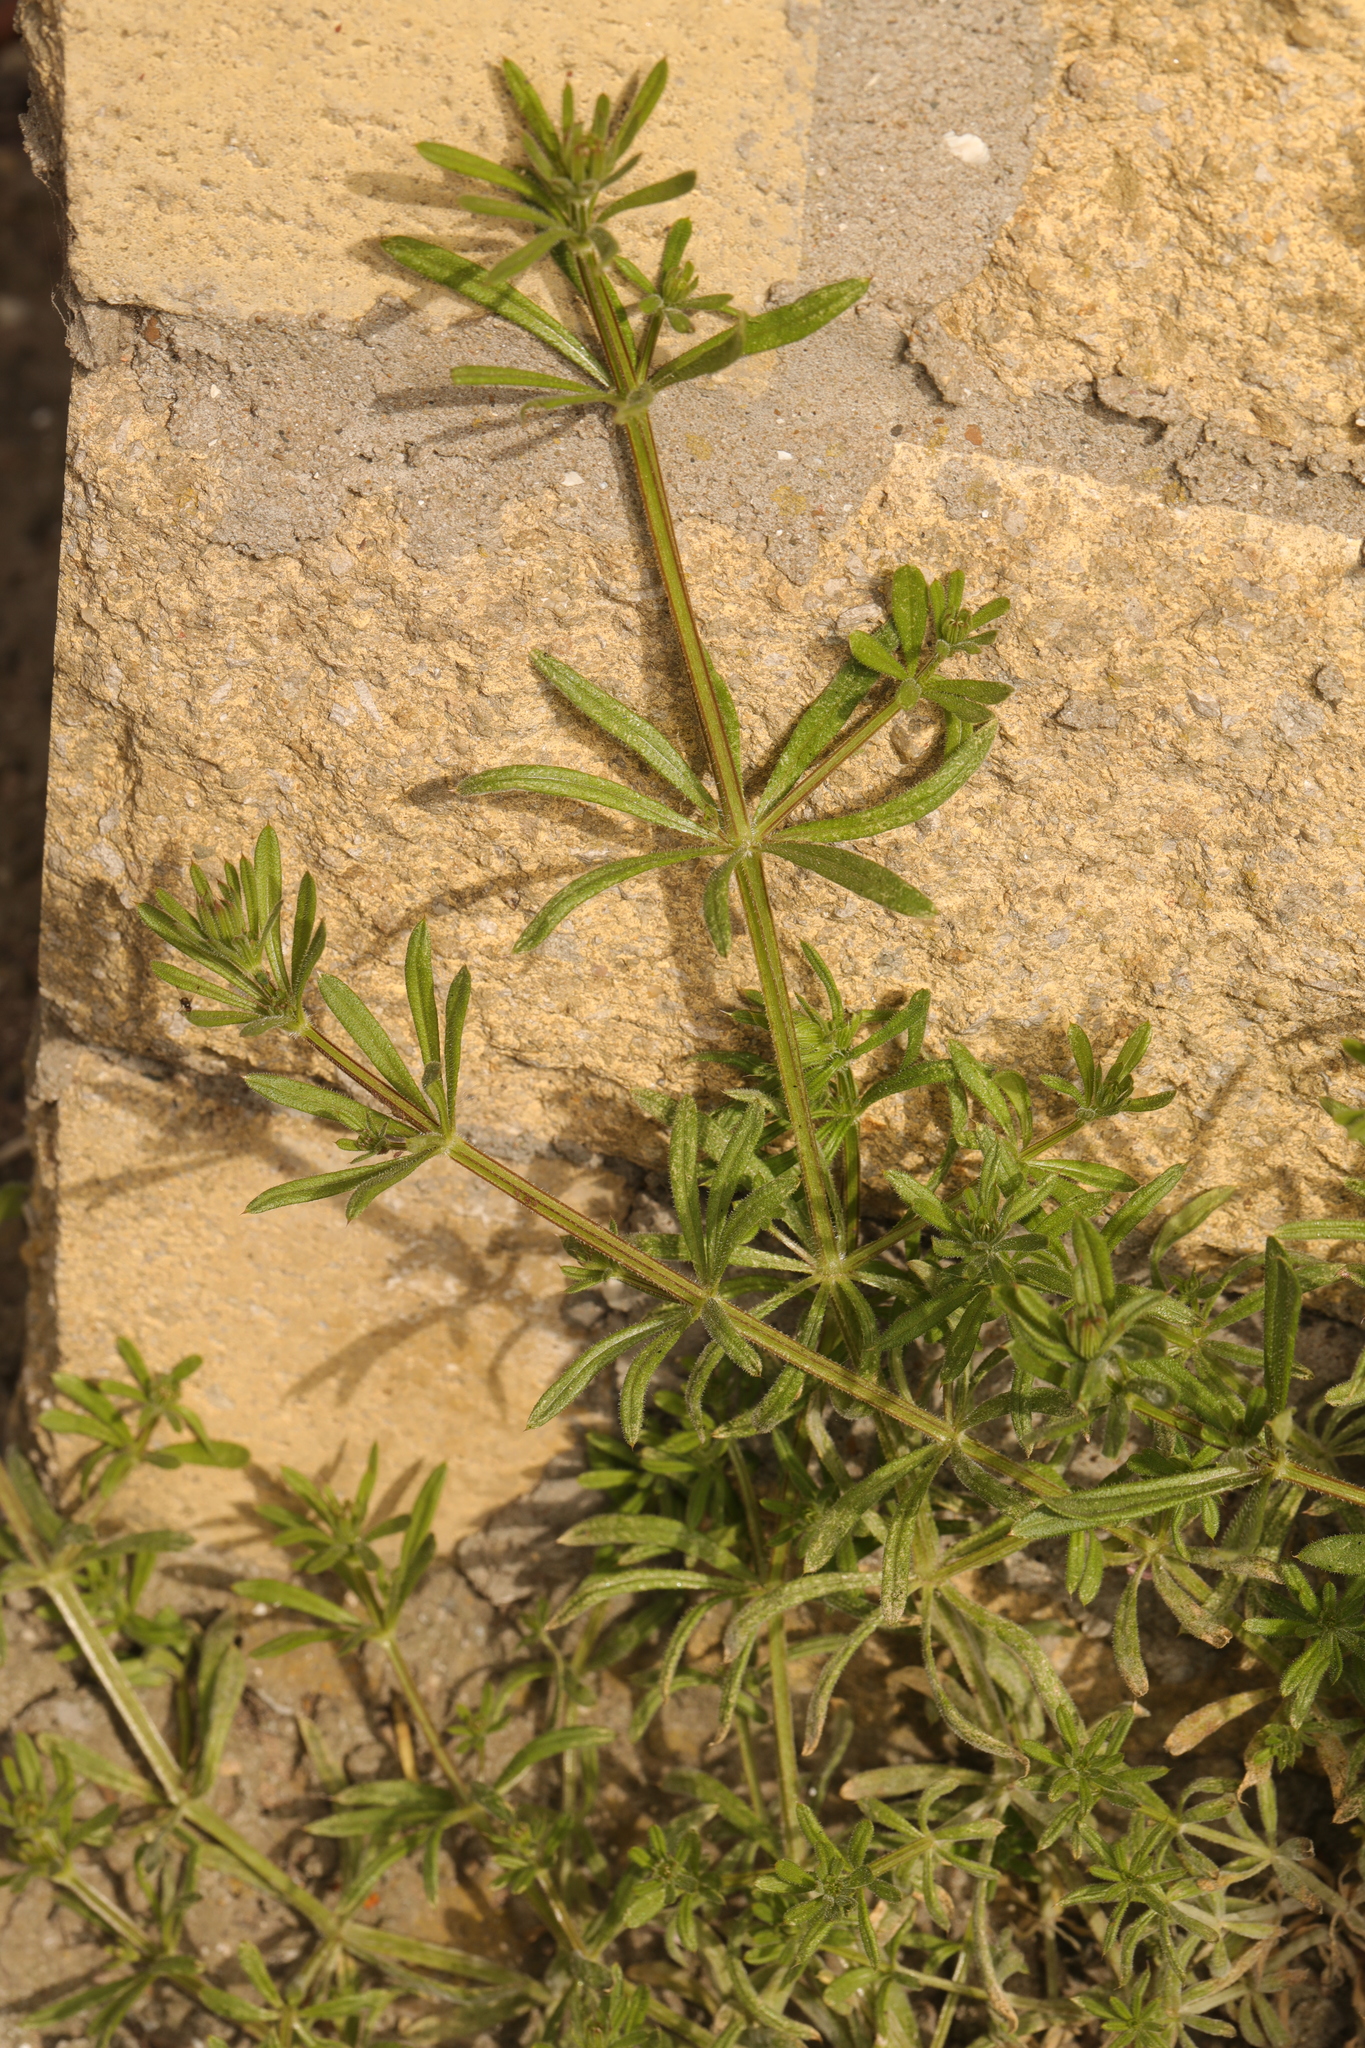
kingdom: Plantae
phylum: Tracheophyta
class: Magnoliopsida
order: Gentianales
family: Rubiaceae
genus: Galium
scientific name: Galium aparine
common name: Cleavers
